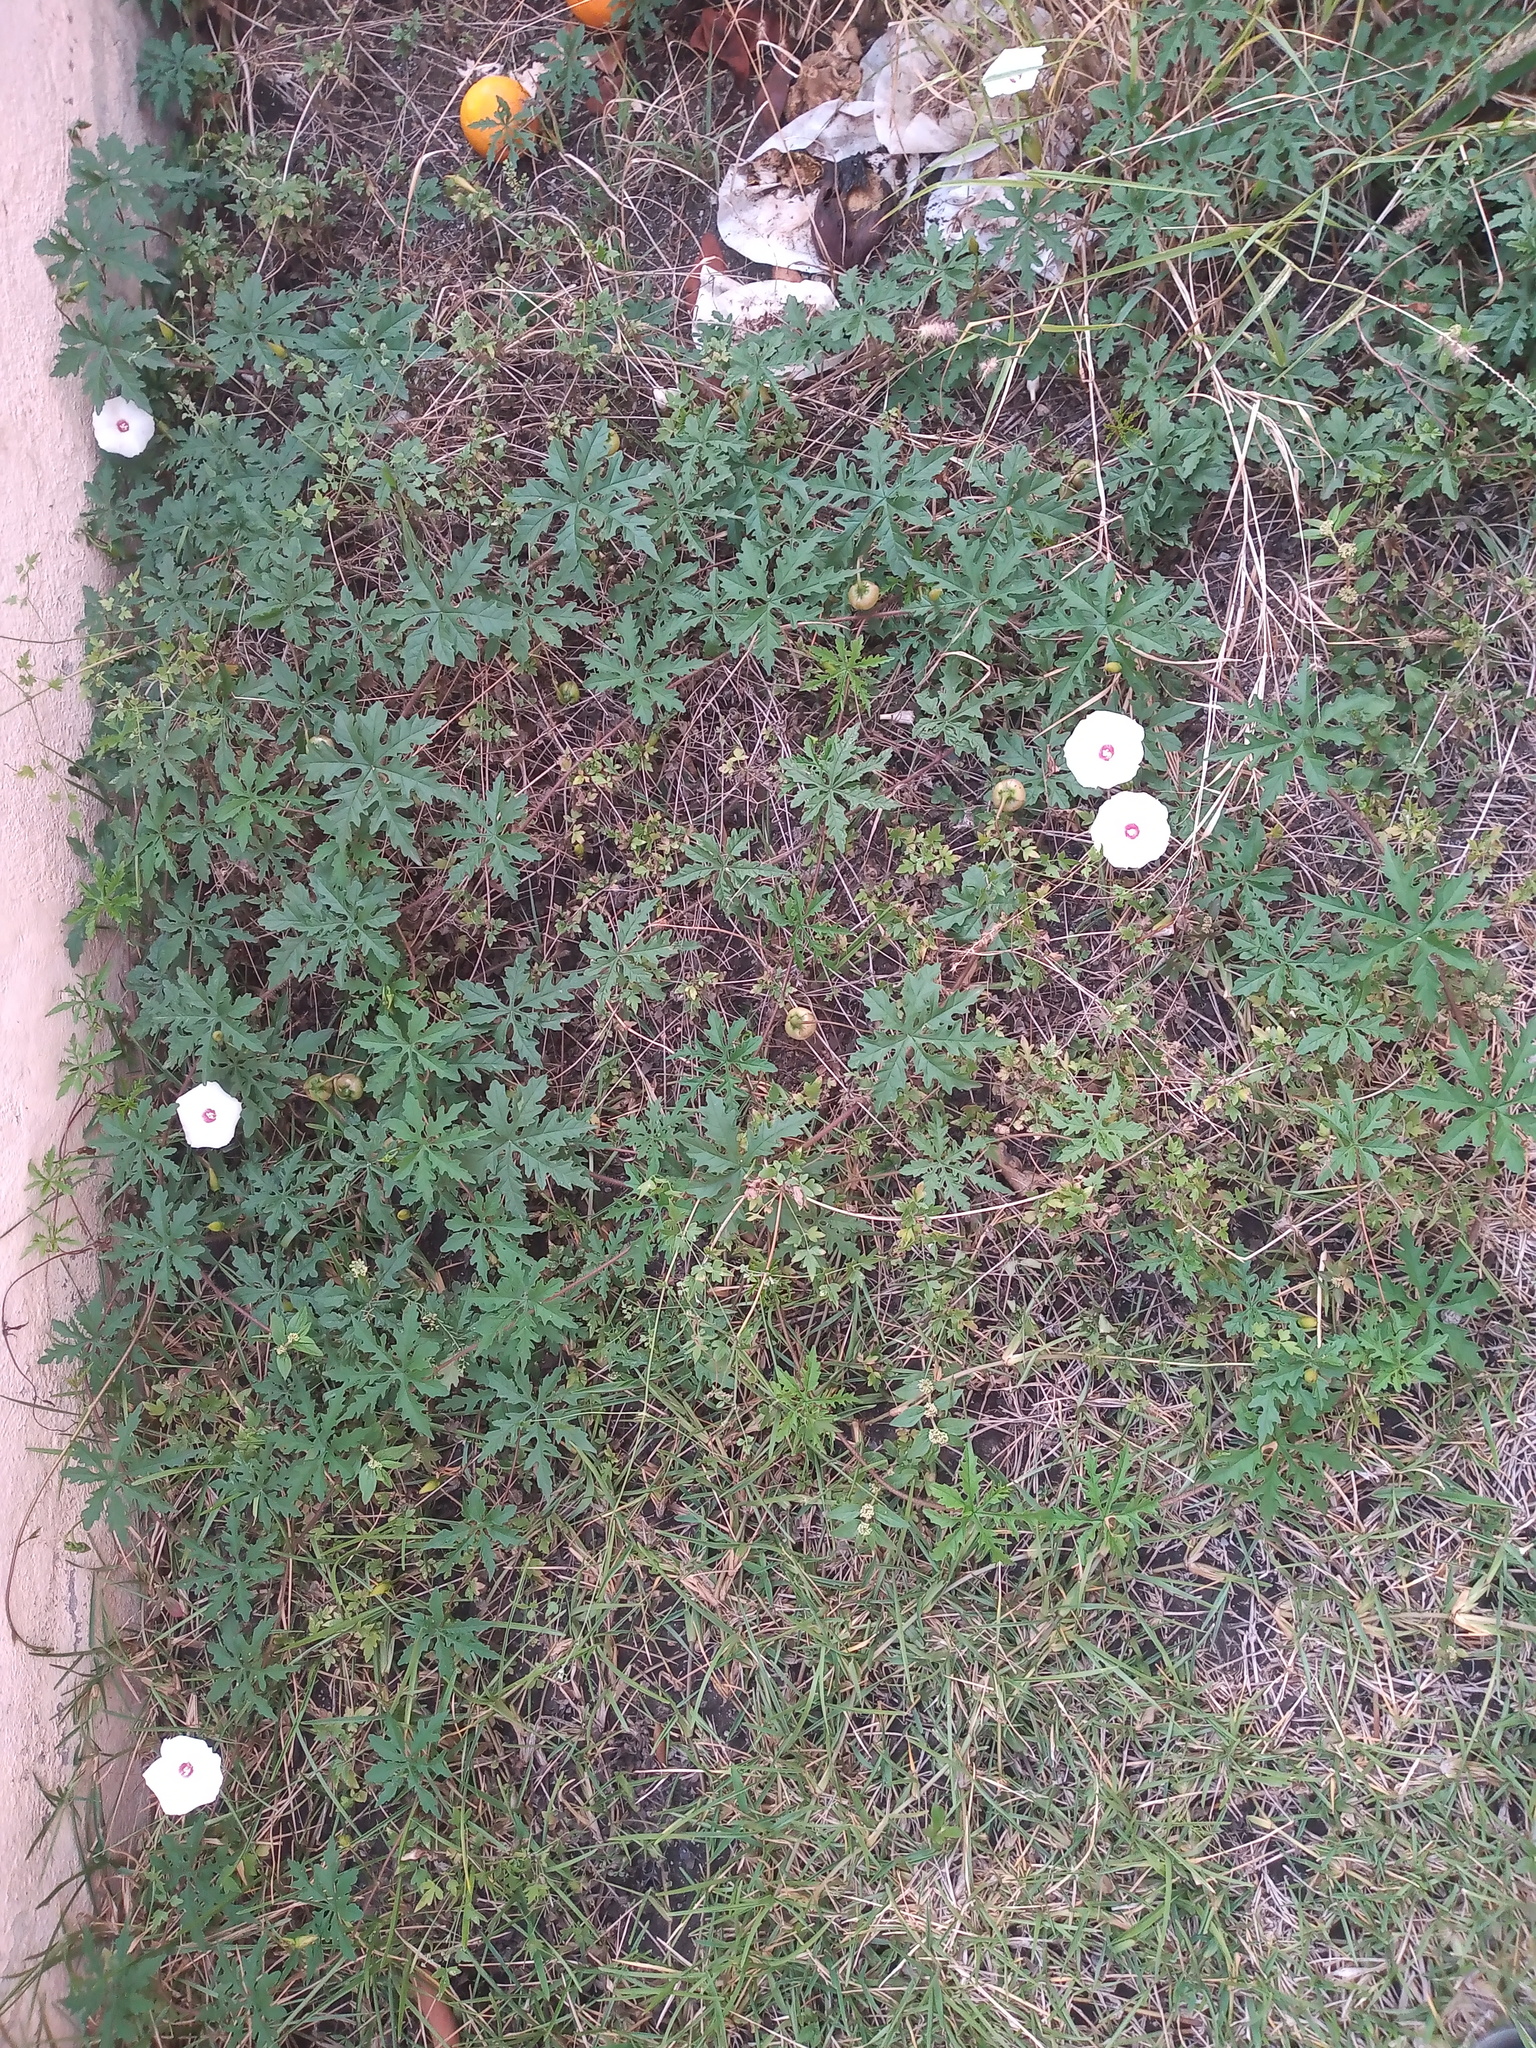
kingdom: Plantae
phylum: Tracheophyta
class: Magnoliopsida
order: Solanales
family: Convolvulaceae
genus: Distimake
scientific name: Distimake dissectus
